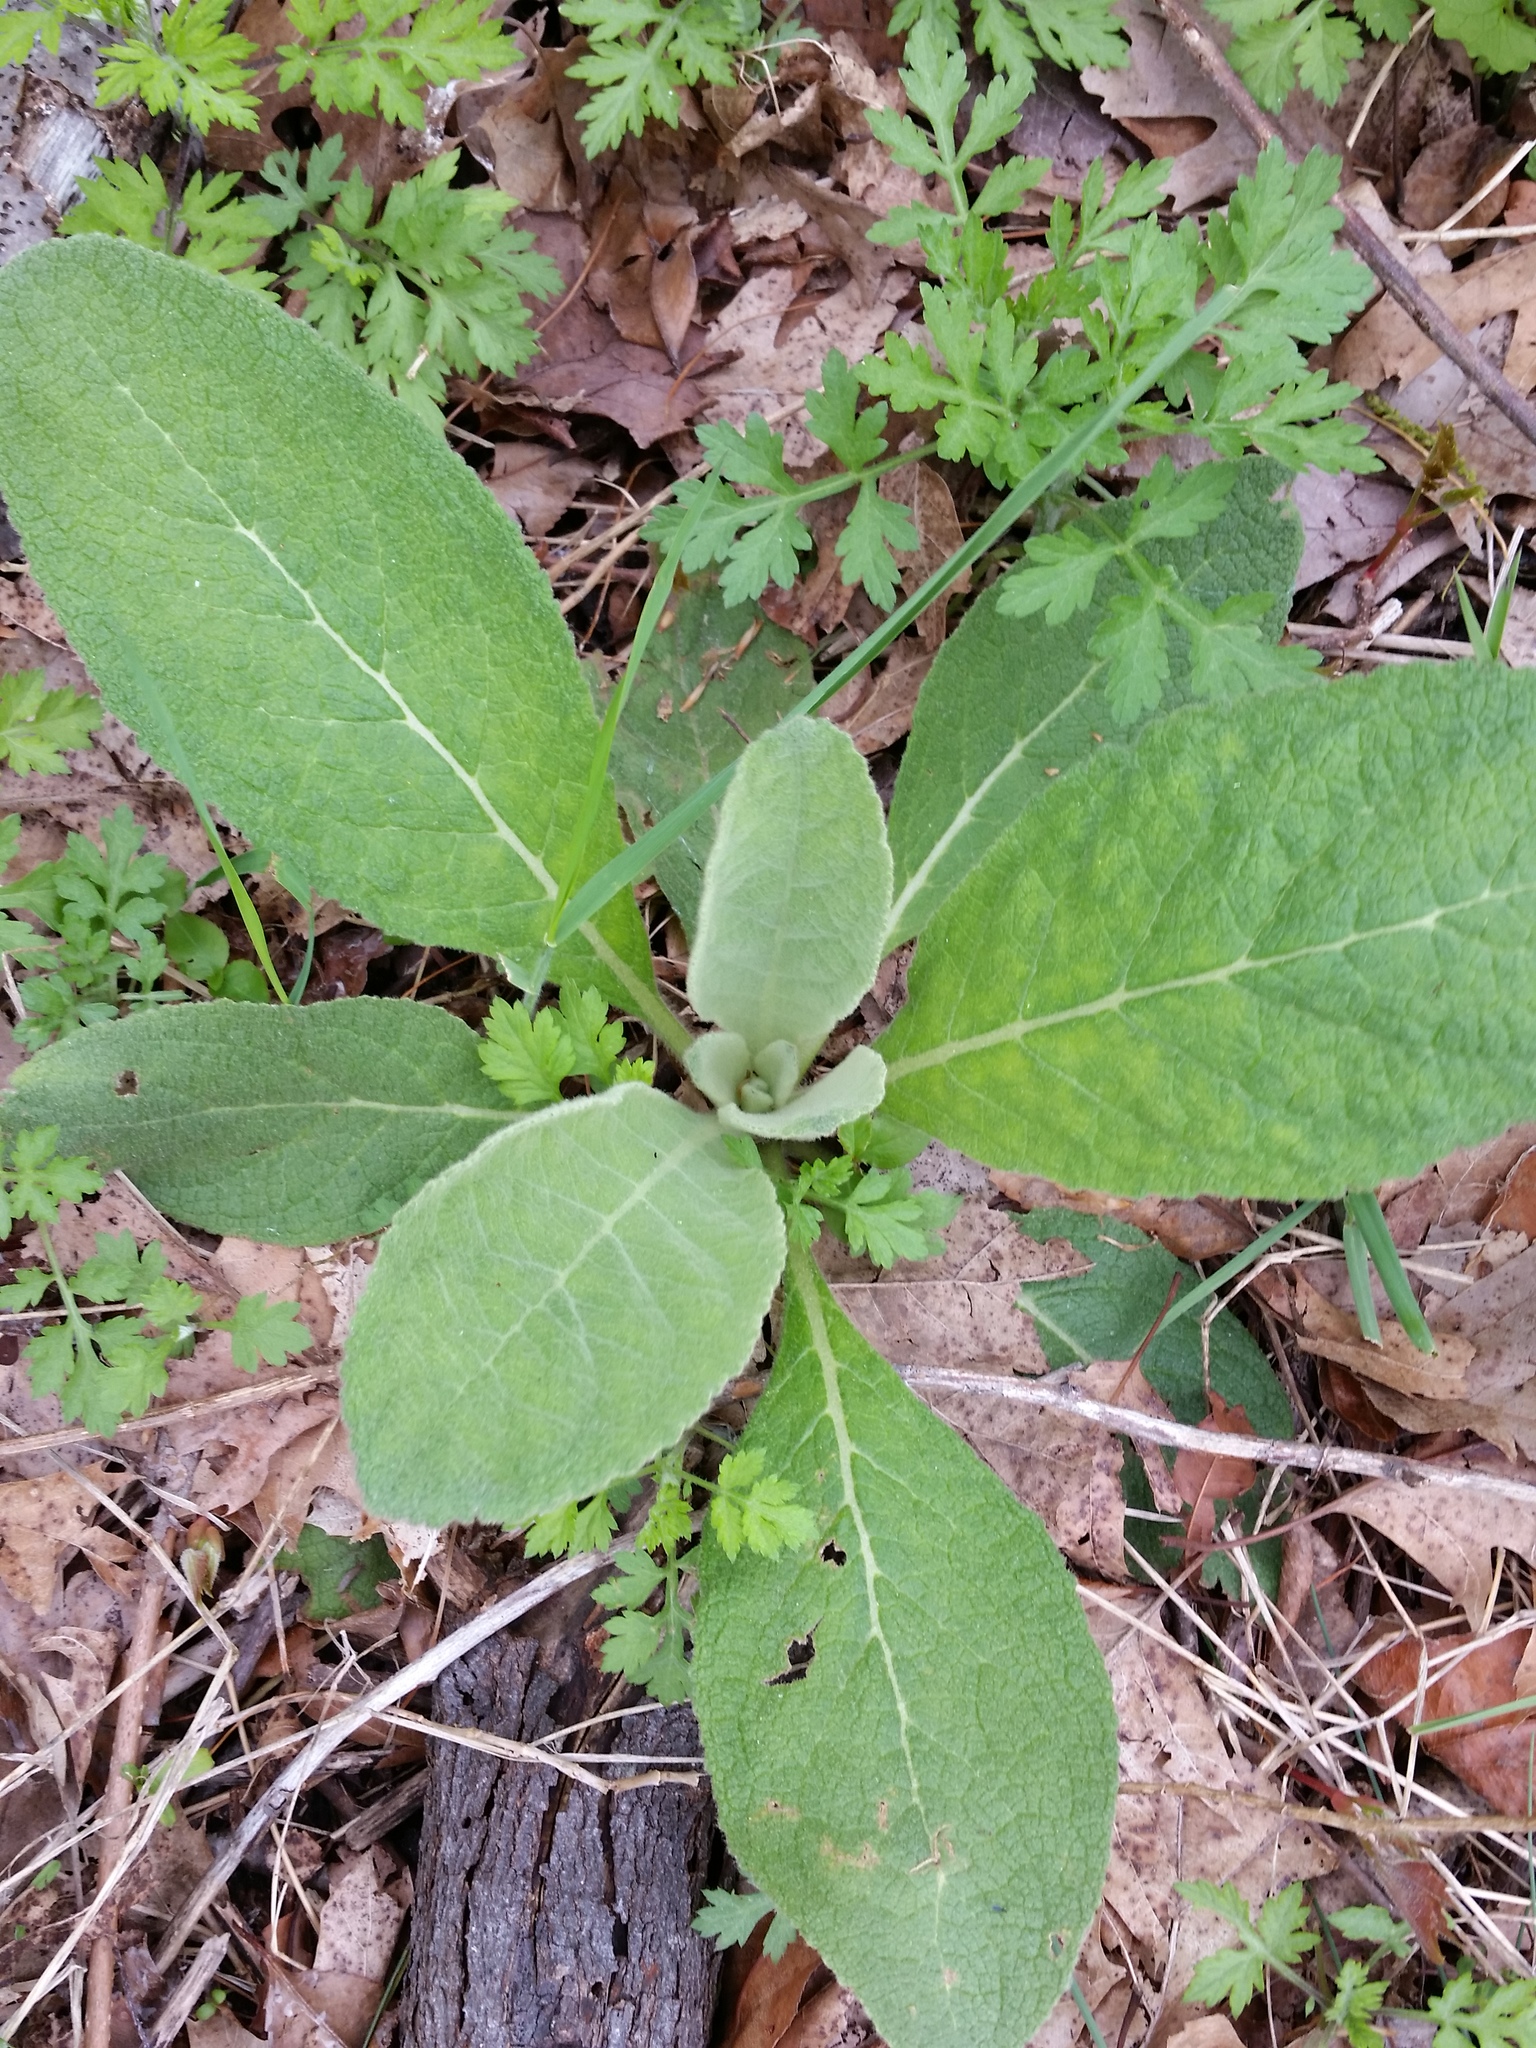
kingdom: Plantae
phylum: Tracheophyta
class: Magnoliopsida
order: Lamiales
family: Scrophulariaceae
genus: Verbascum
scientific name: Verbascum thapsus
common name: Common mullein
